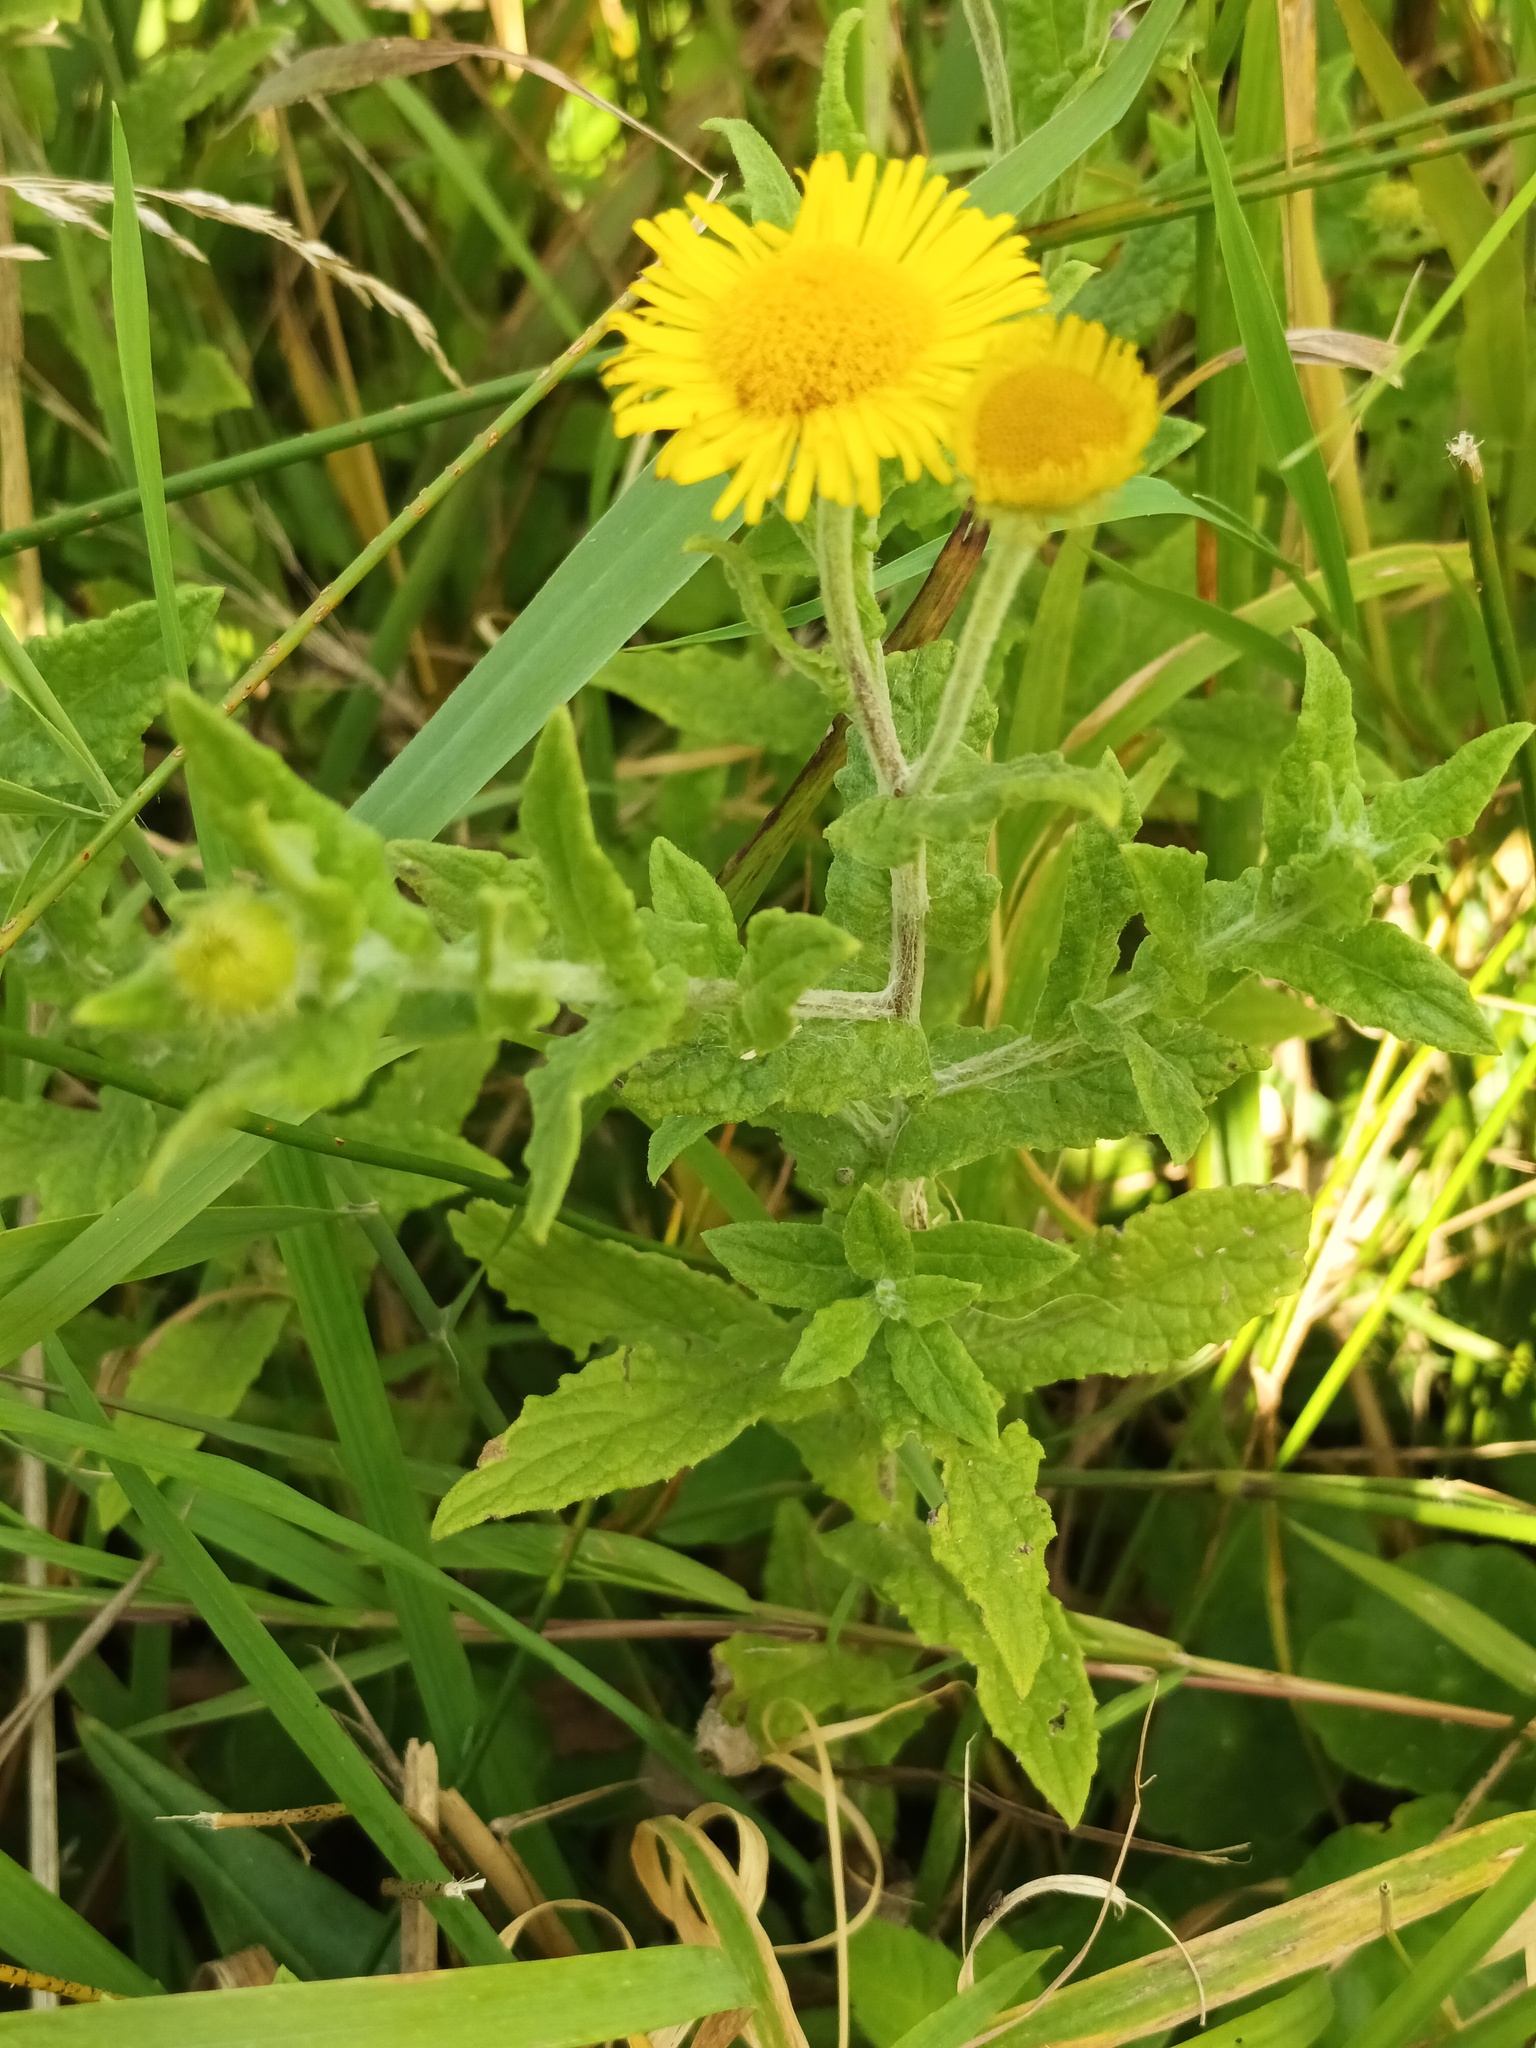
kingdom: Plantae
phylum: Tracheophyta
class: Magnoliopsida
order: Asterales
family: Asteraceae
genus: Pulicaria
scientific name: Pulicaria dysenterica
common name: Common fleabane
